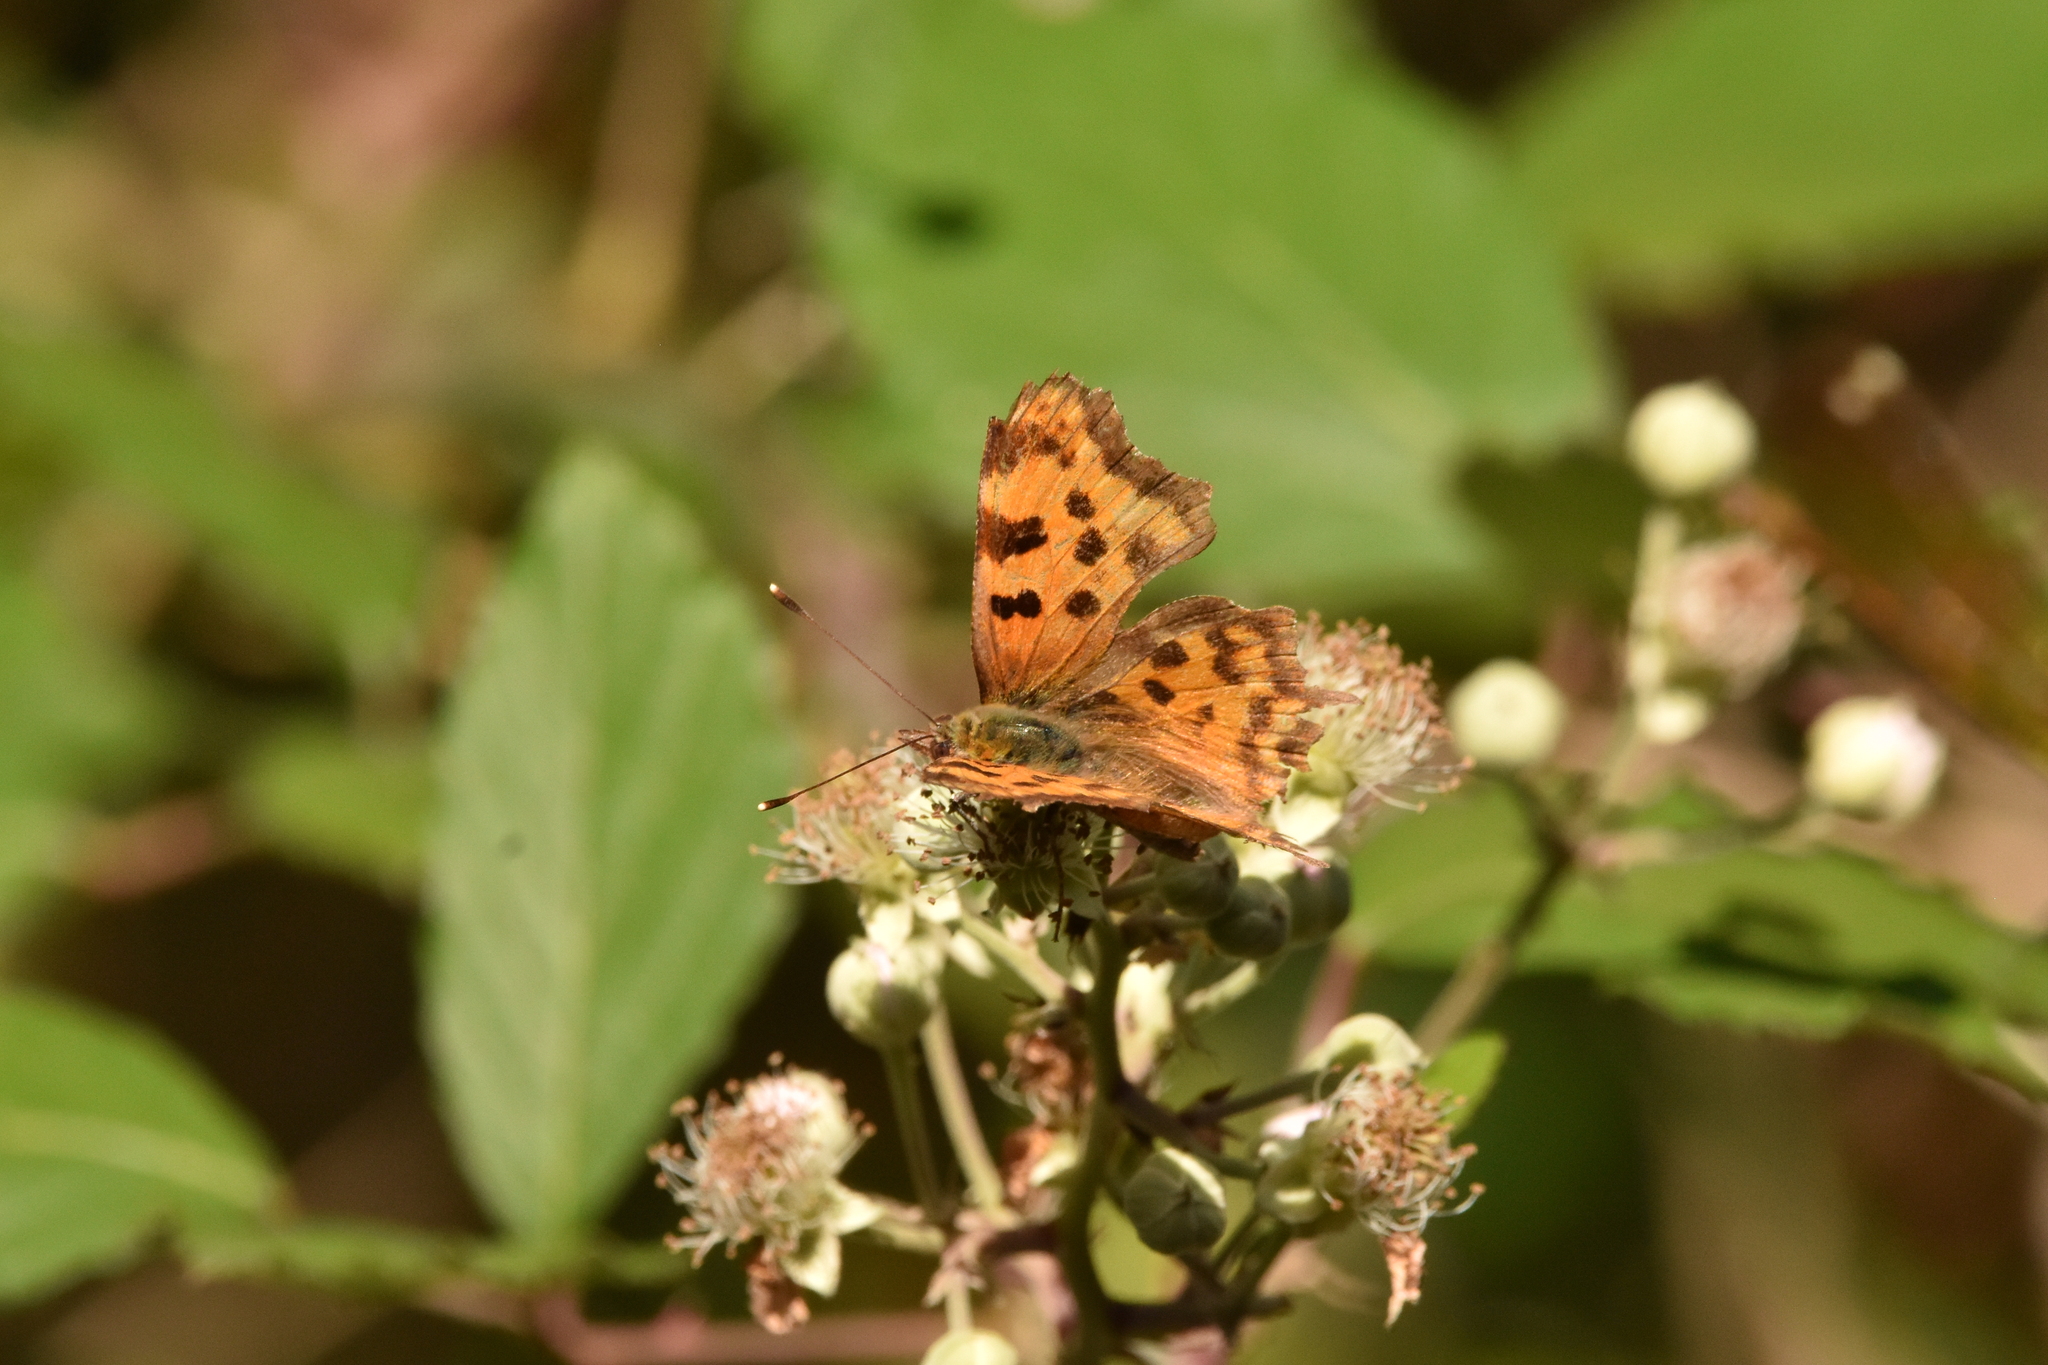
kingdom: Animalia
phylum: Arthropoda
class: Insecta
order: Lepidoptera
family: Nymphalidae
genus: Polygonia
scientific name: Polygonia c-album
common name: Comma
